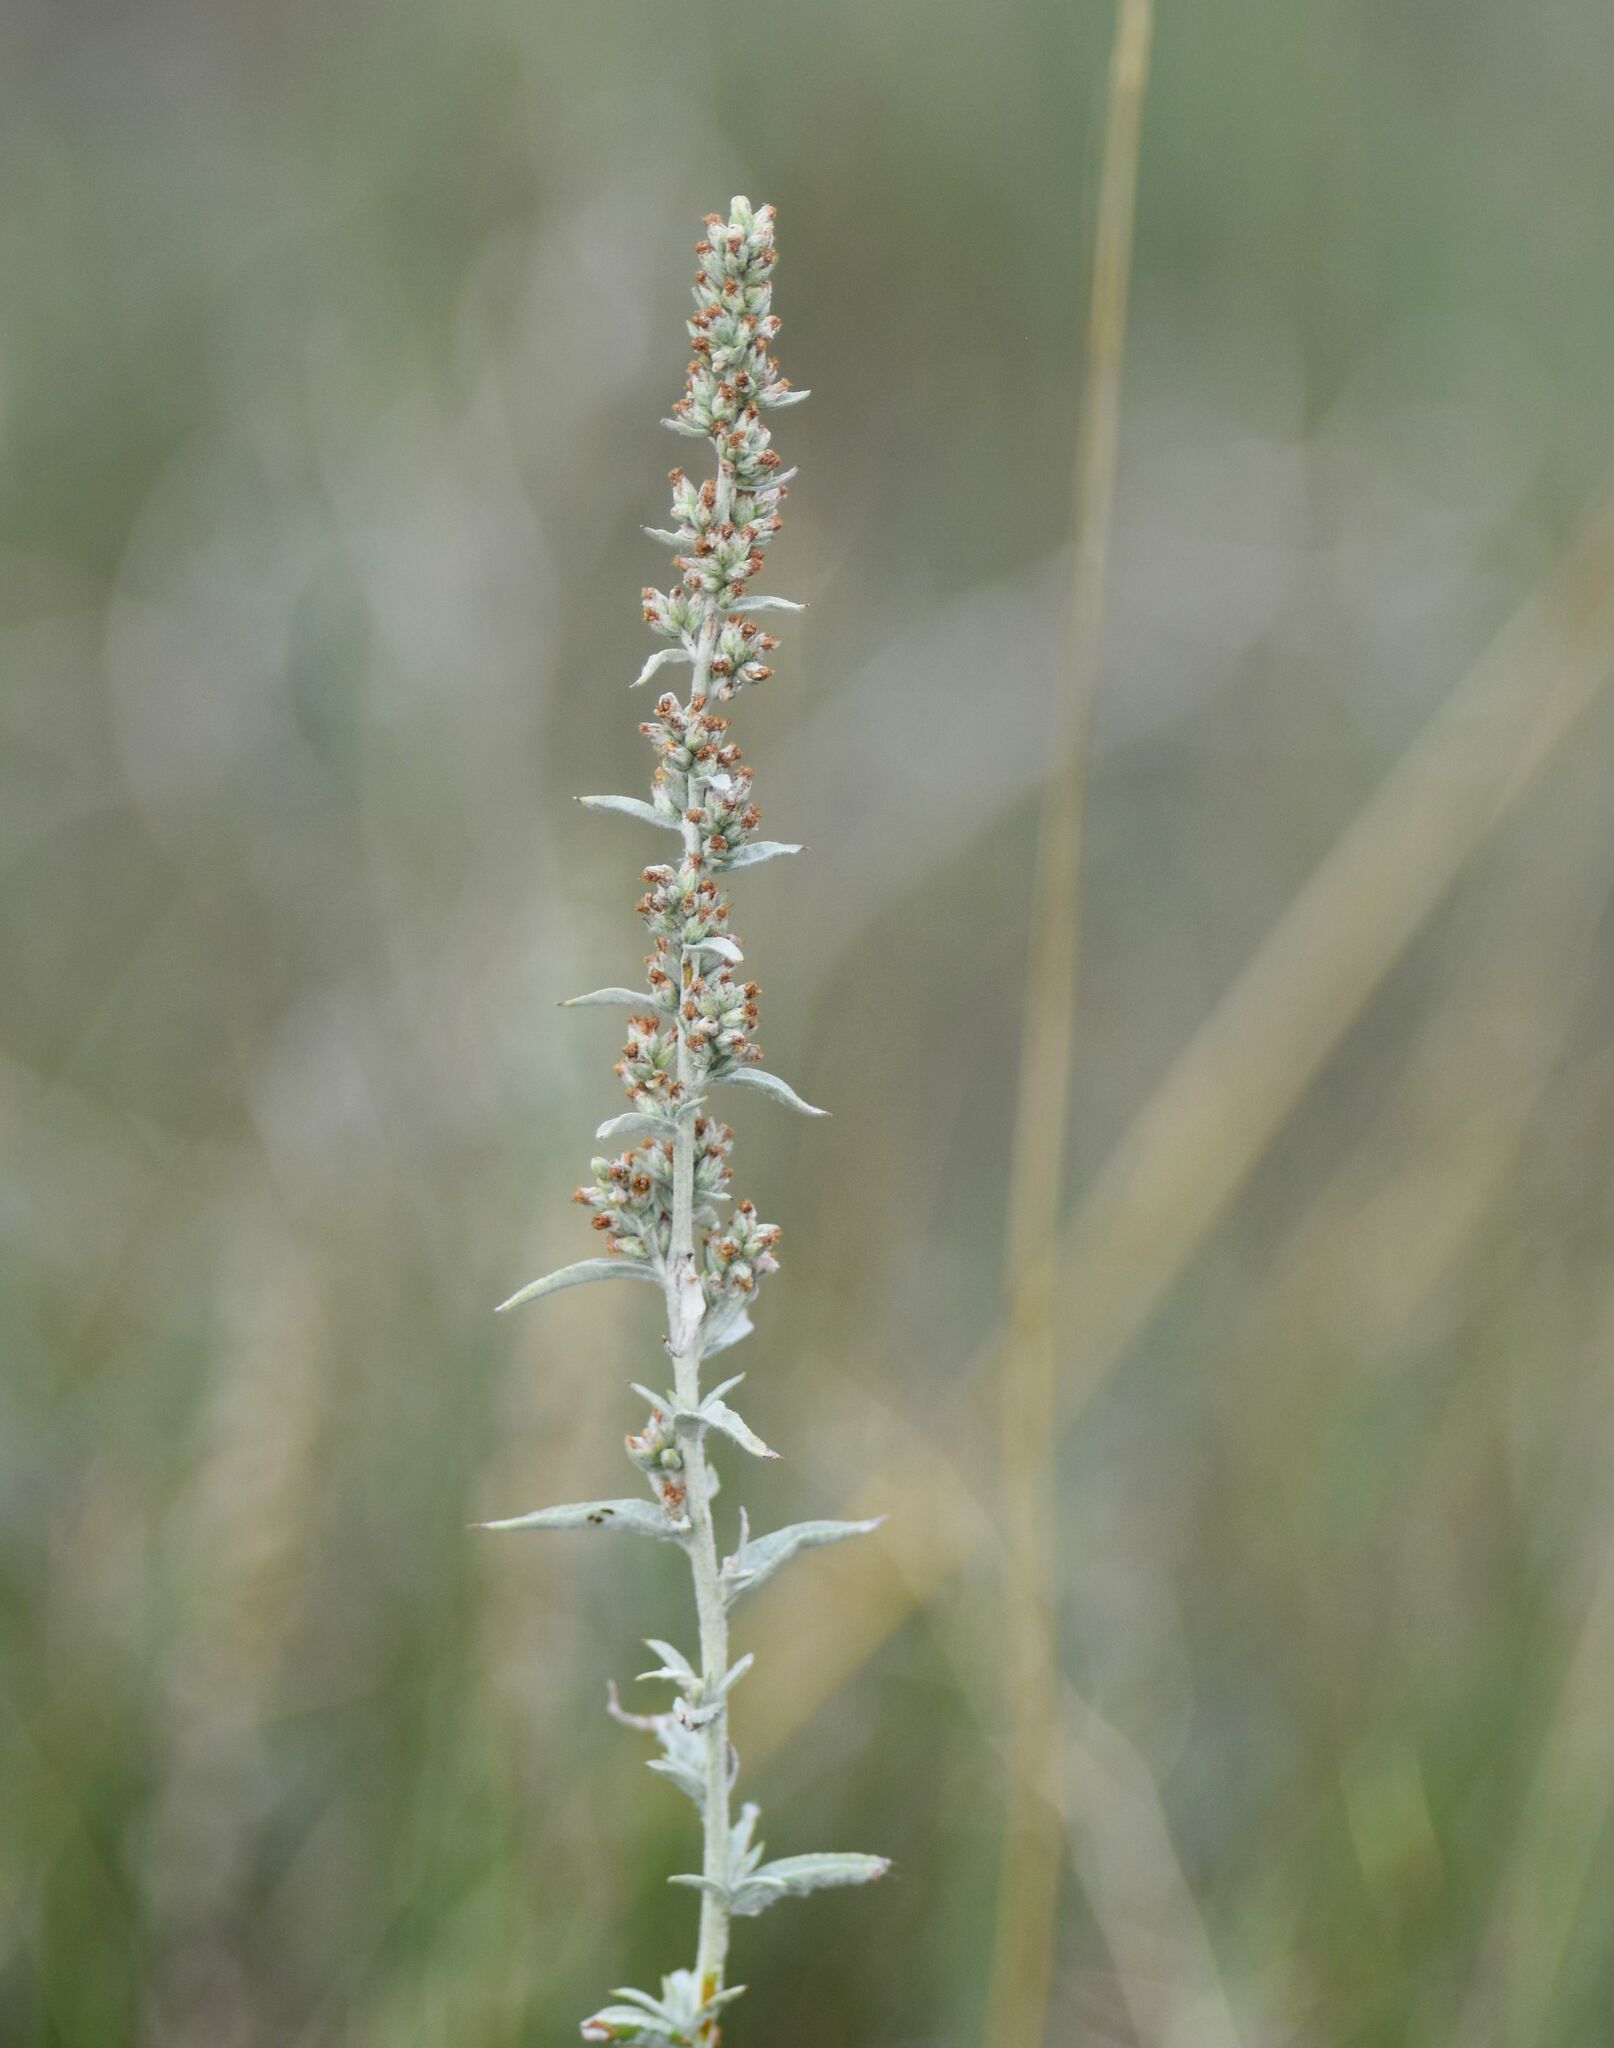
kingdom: Plantae
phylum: Tracheophyta
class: Magnoliopsida
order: Asterales
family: Asteraceae
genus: Artemisia
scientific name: Artemisia ludoviciana
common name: Western mugwort
